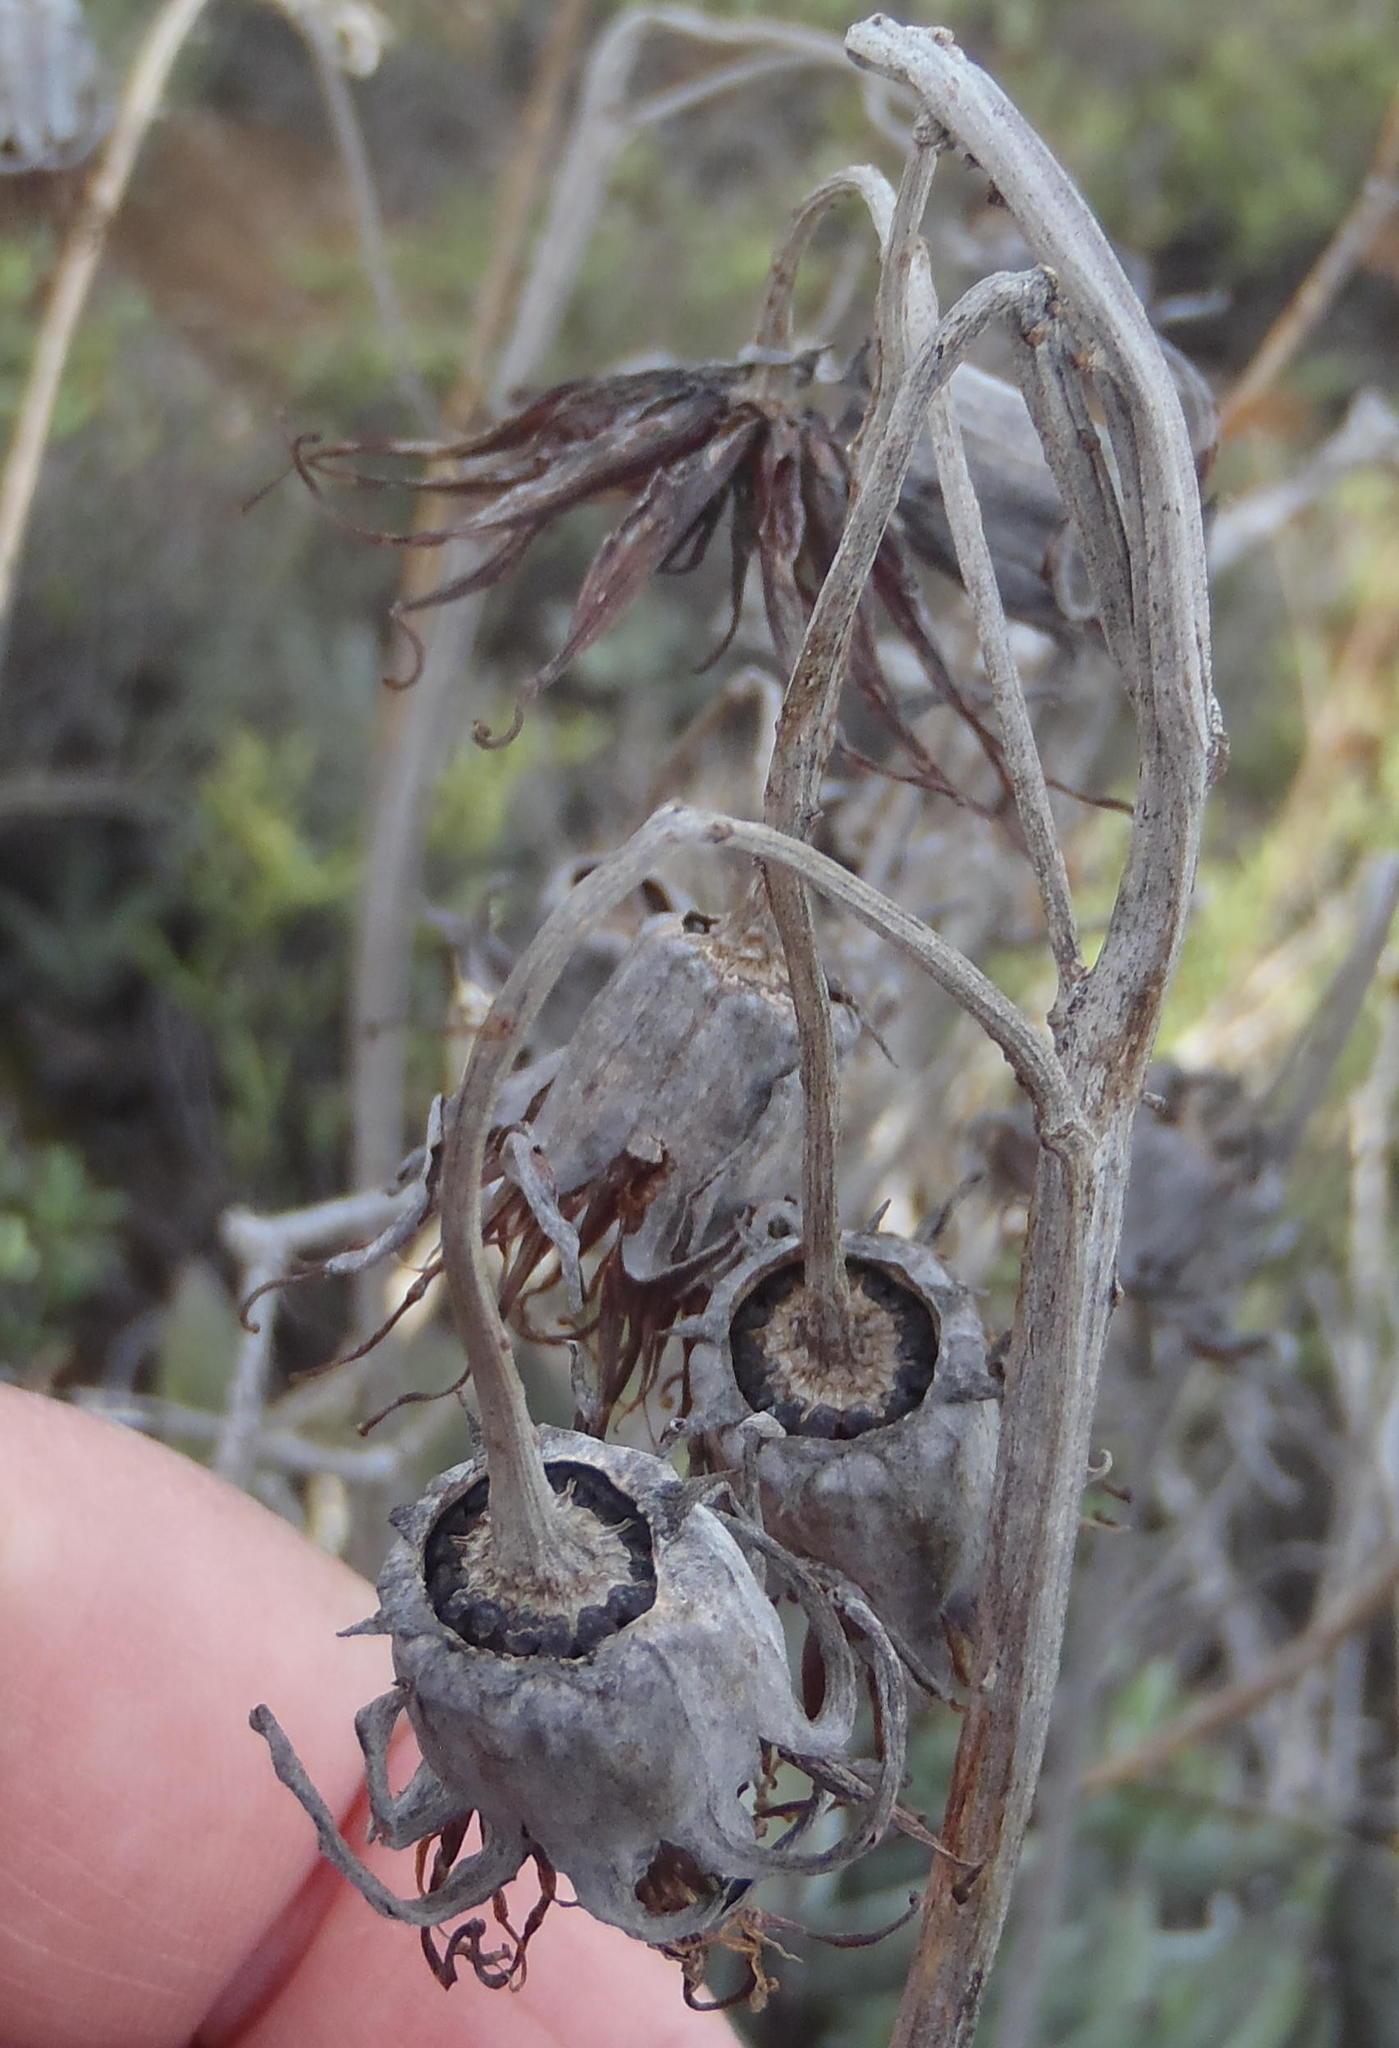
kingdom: Plantae
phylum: Tracheophyta
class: Magnoliopsida
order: Saxifragales
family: Crassulaceae
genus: Cotyledon
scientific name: Cotyledon orbiculata
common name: Pig's ear
